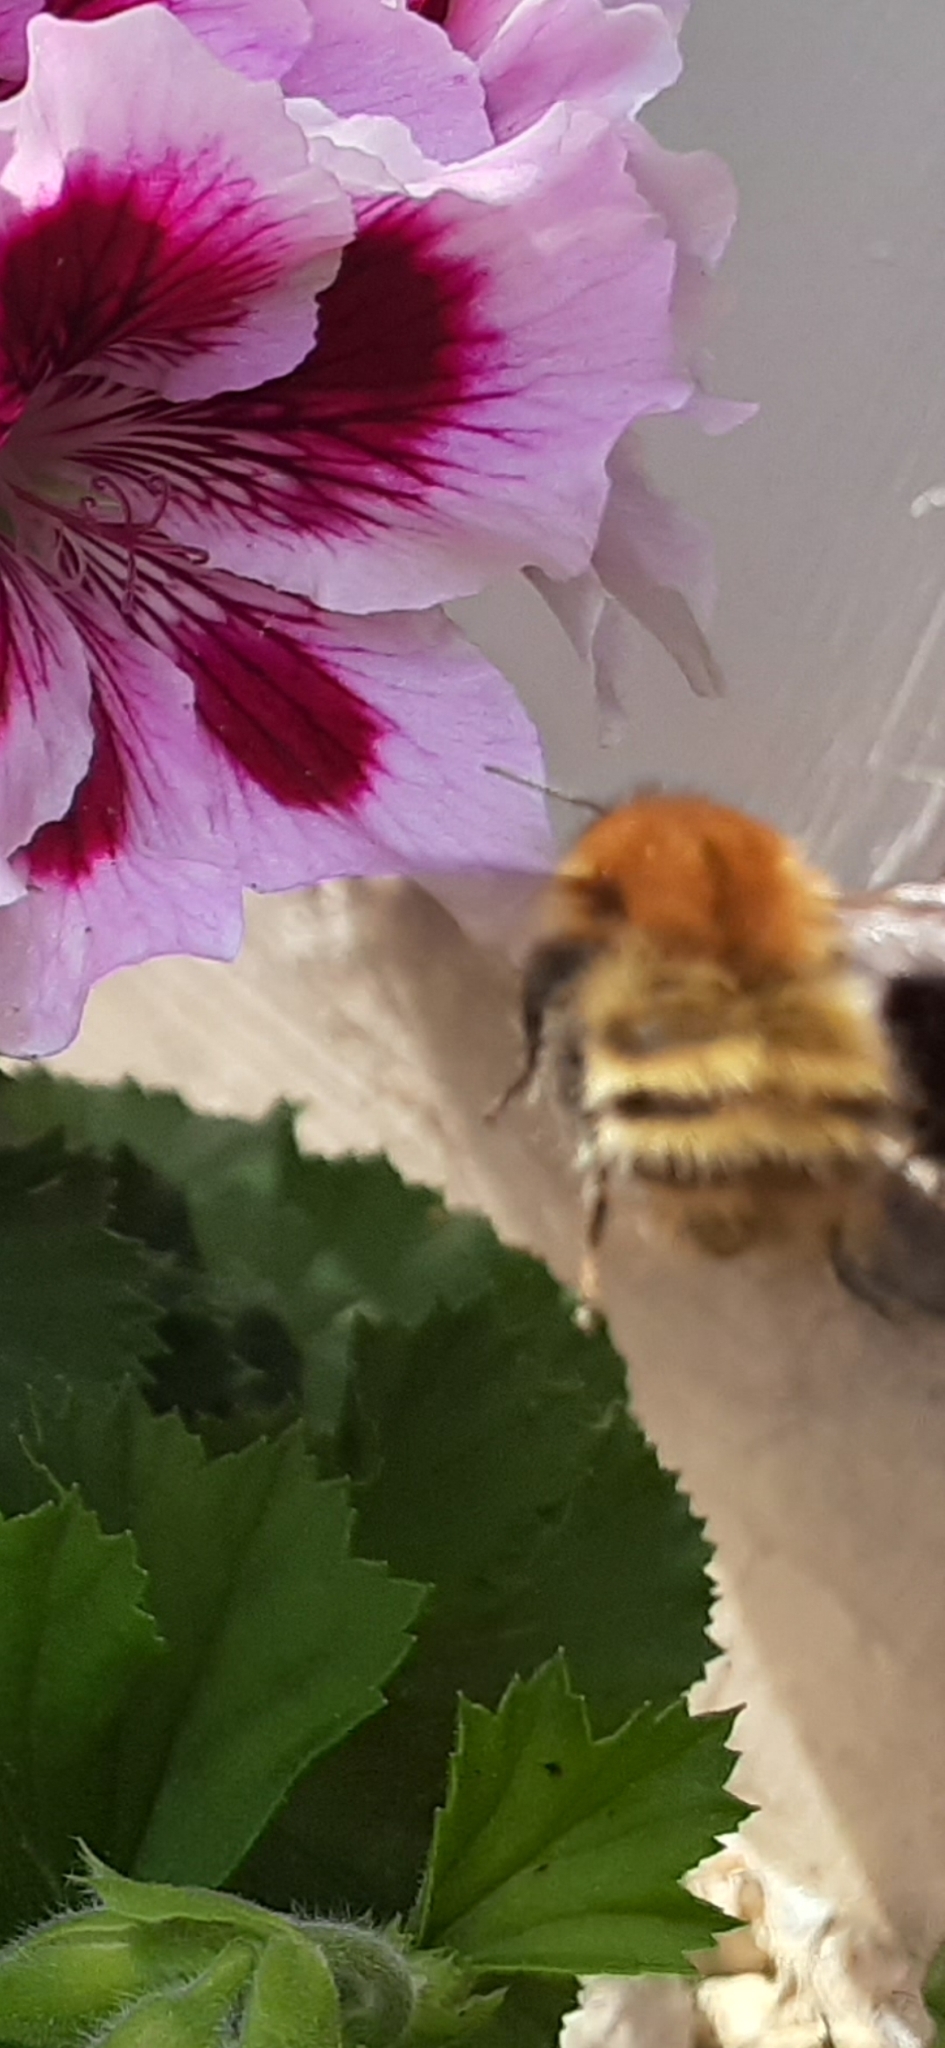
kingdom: Animalia
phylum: Arthropoda
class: Insecta
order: Hymenoptera
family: Apidae
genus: Bombus
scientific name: Bombus pascuorum
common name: Common carder bee
